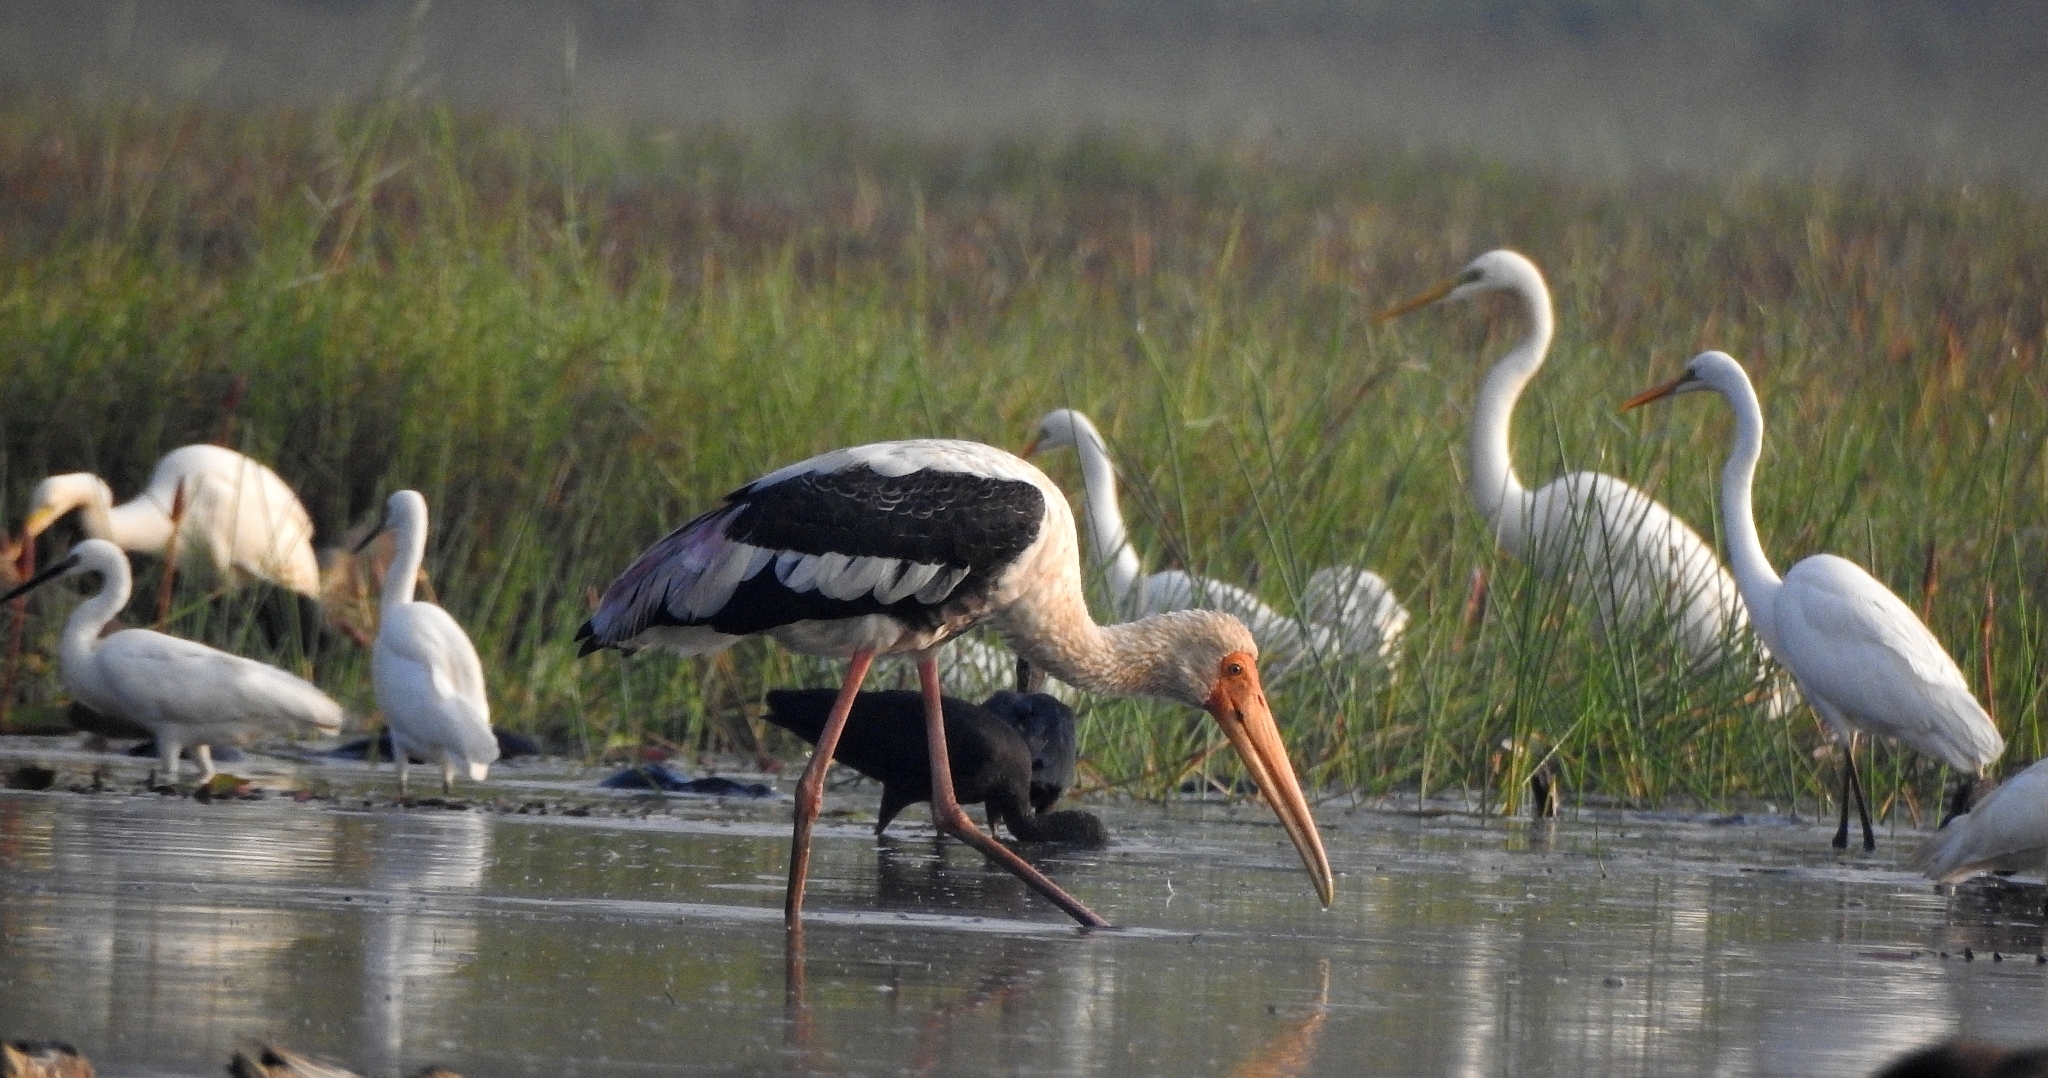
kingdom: Animalia
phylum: Chordata
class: Aves
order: Ciconiiformes
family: Ciconiidae
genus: Mycteria
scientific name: Mycteria leucocephala
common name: Painted stork
